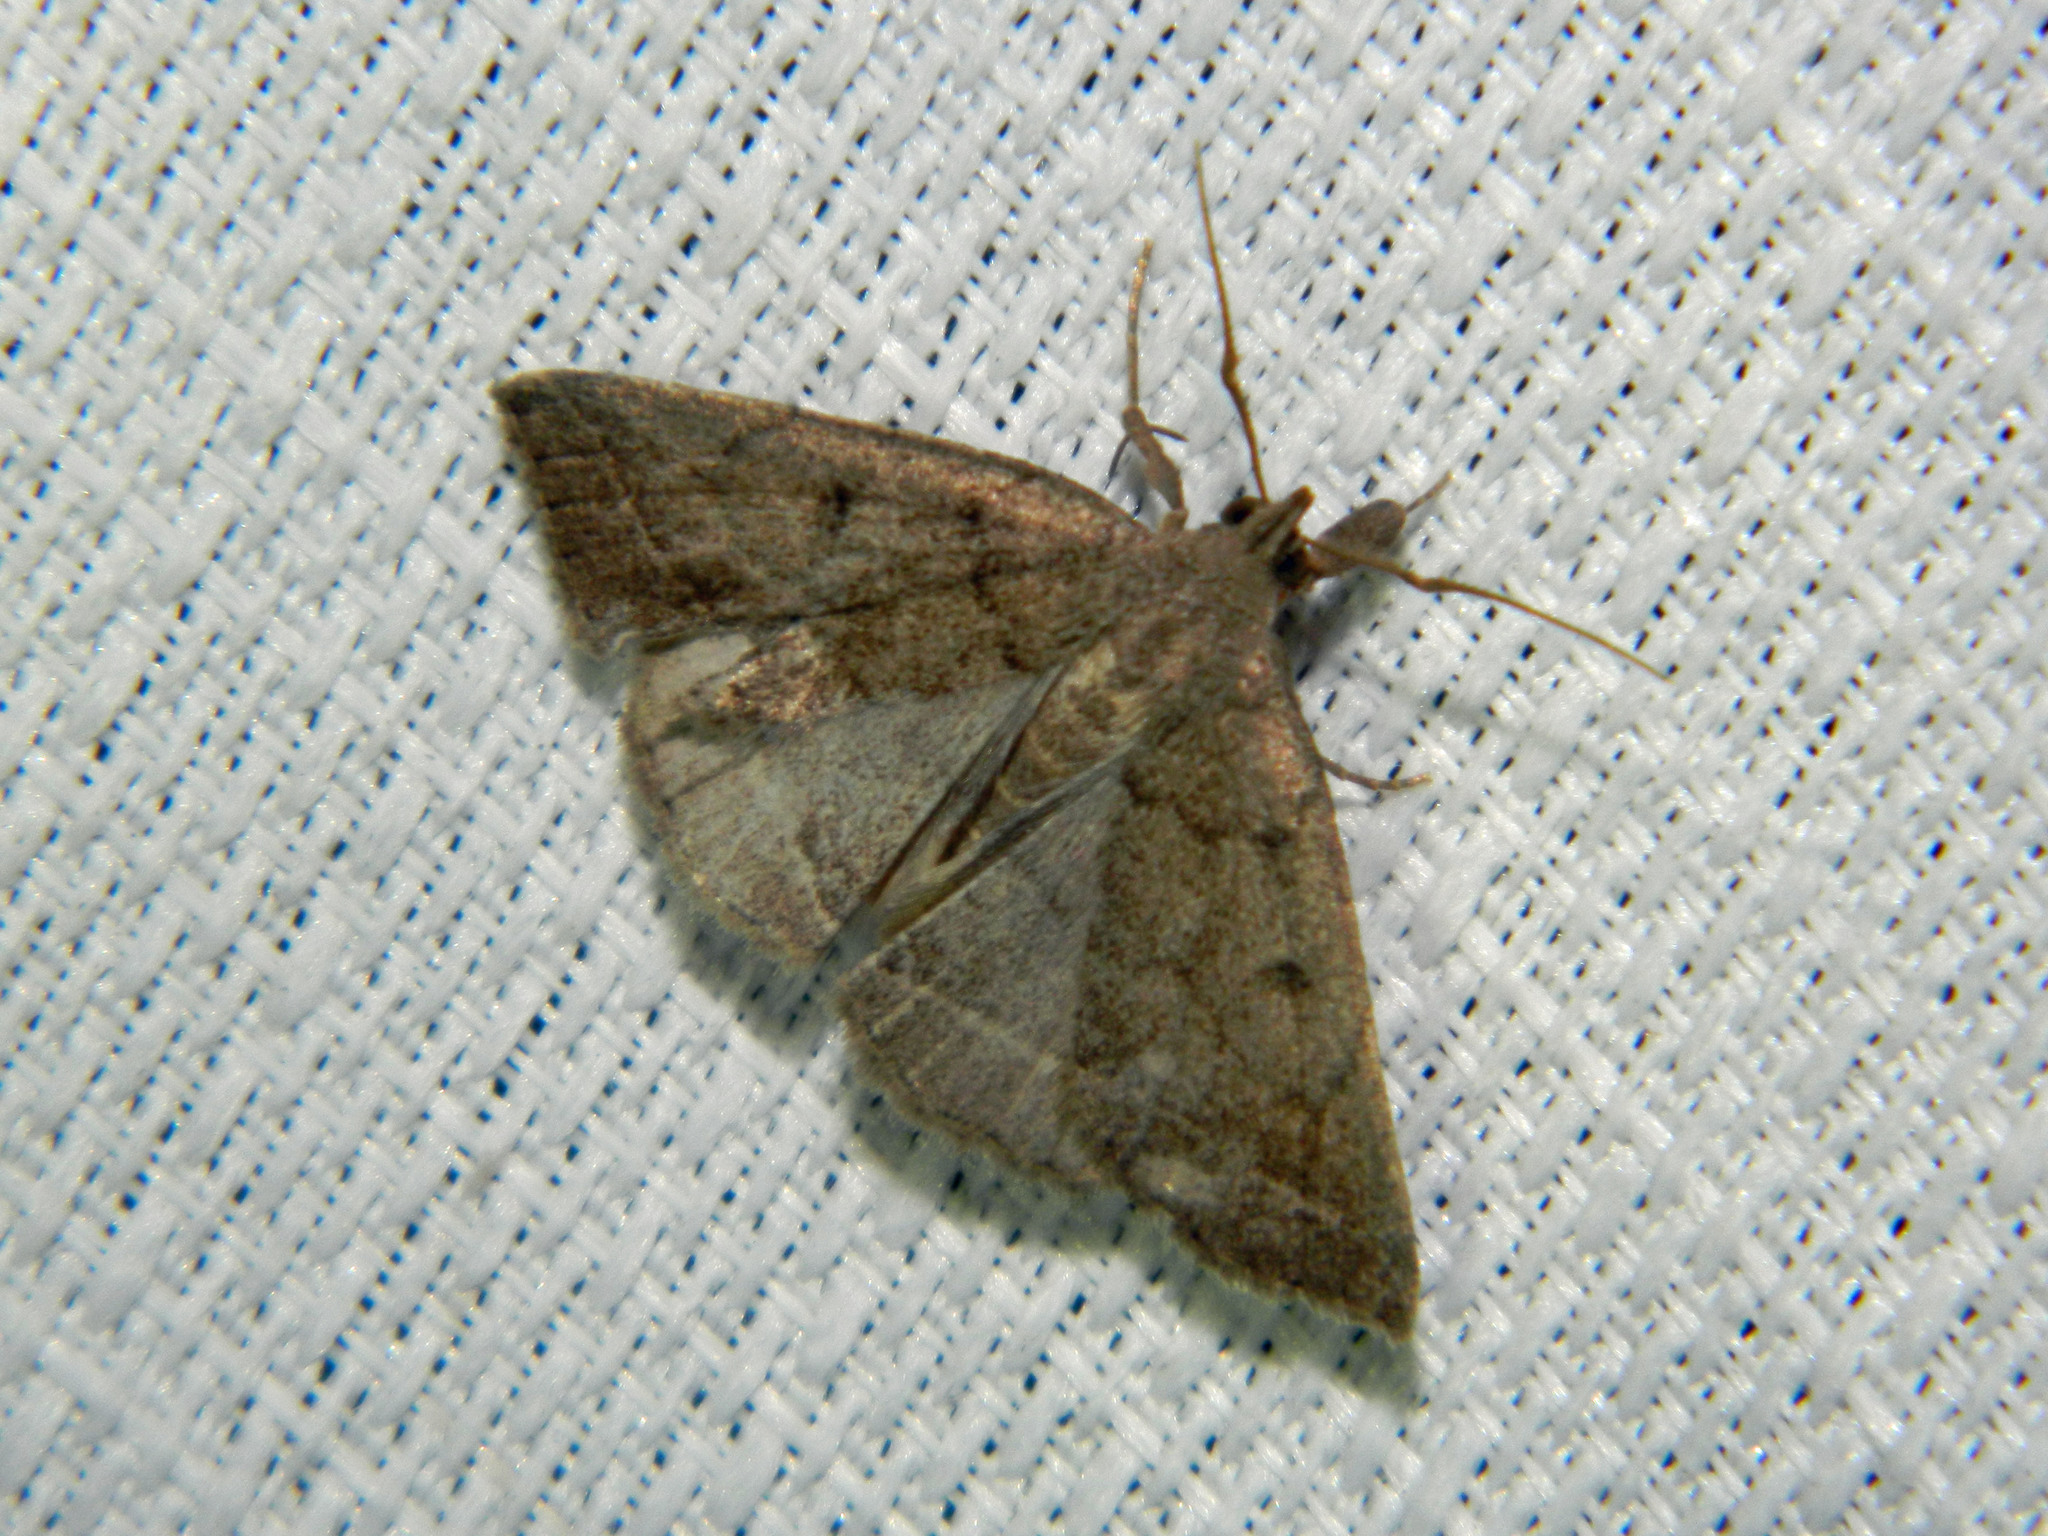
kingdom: Animalia
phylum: Arthropoda
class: Insecta
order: Lepidoptera
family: Erebidae
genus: Zanclognatha
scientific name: Zanclognatha jacchusalis
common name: Yellowish zanclognatha
